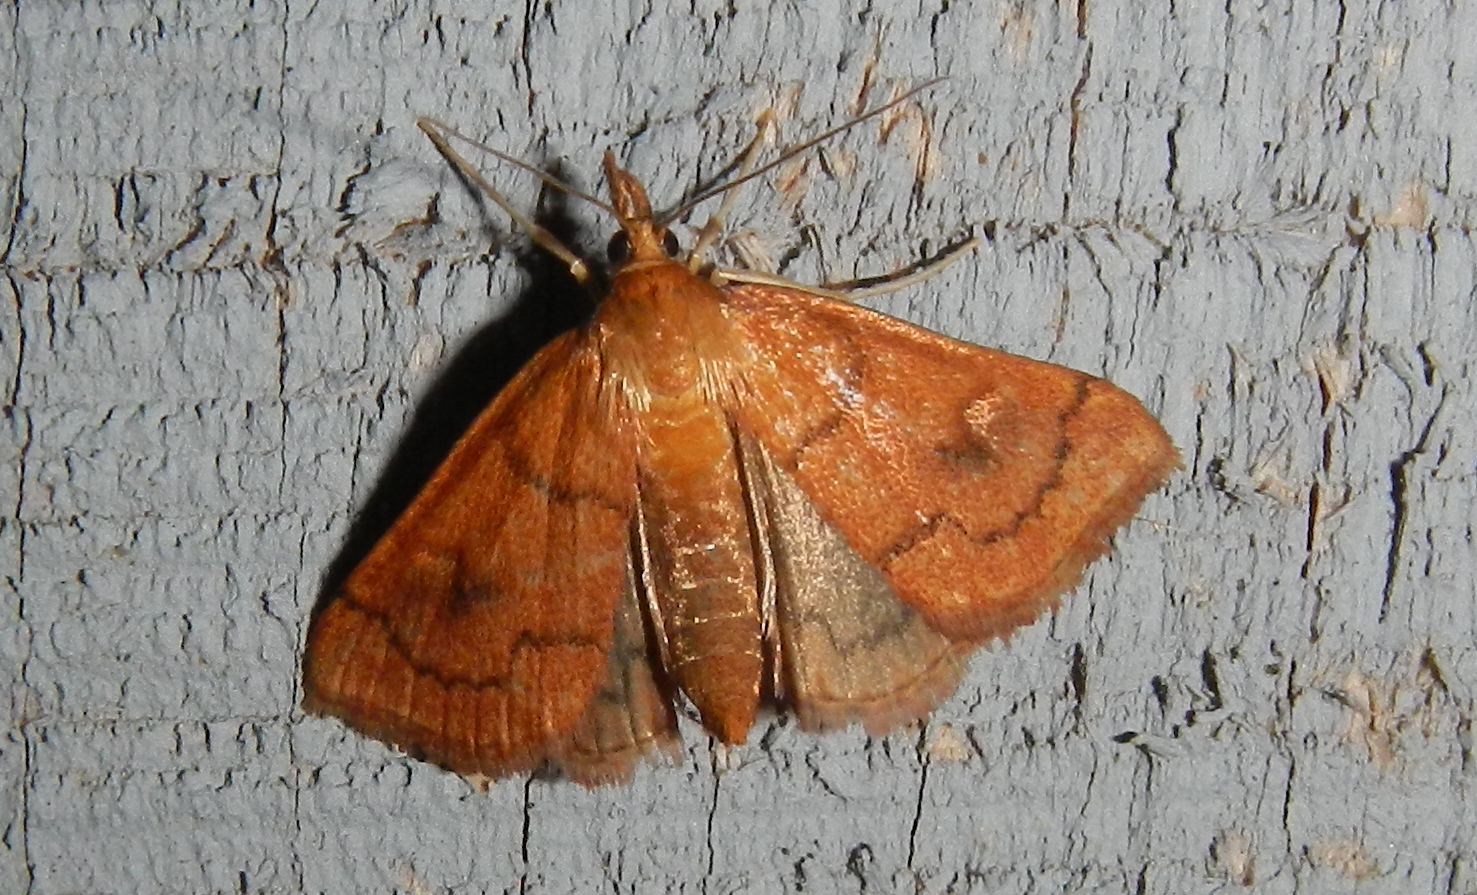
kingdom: Animalia
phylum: Arthropoda
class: Insecta
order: Lepidoptera
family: Crambidae
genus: Fumibotys
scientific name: Fumibotys fumalis
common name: Mint root borer moth
